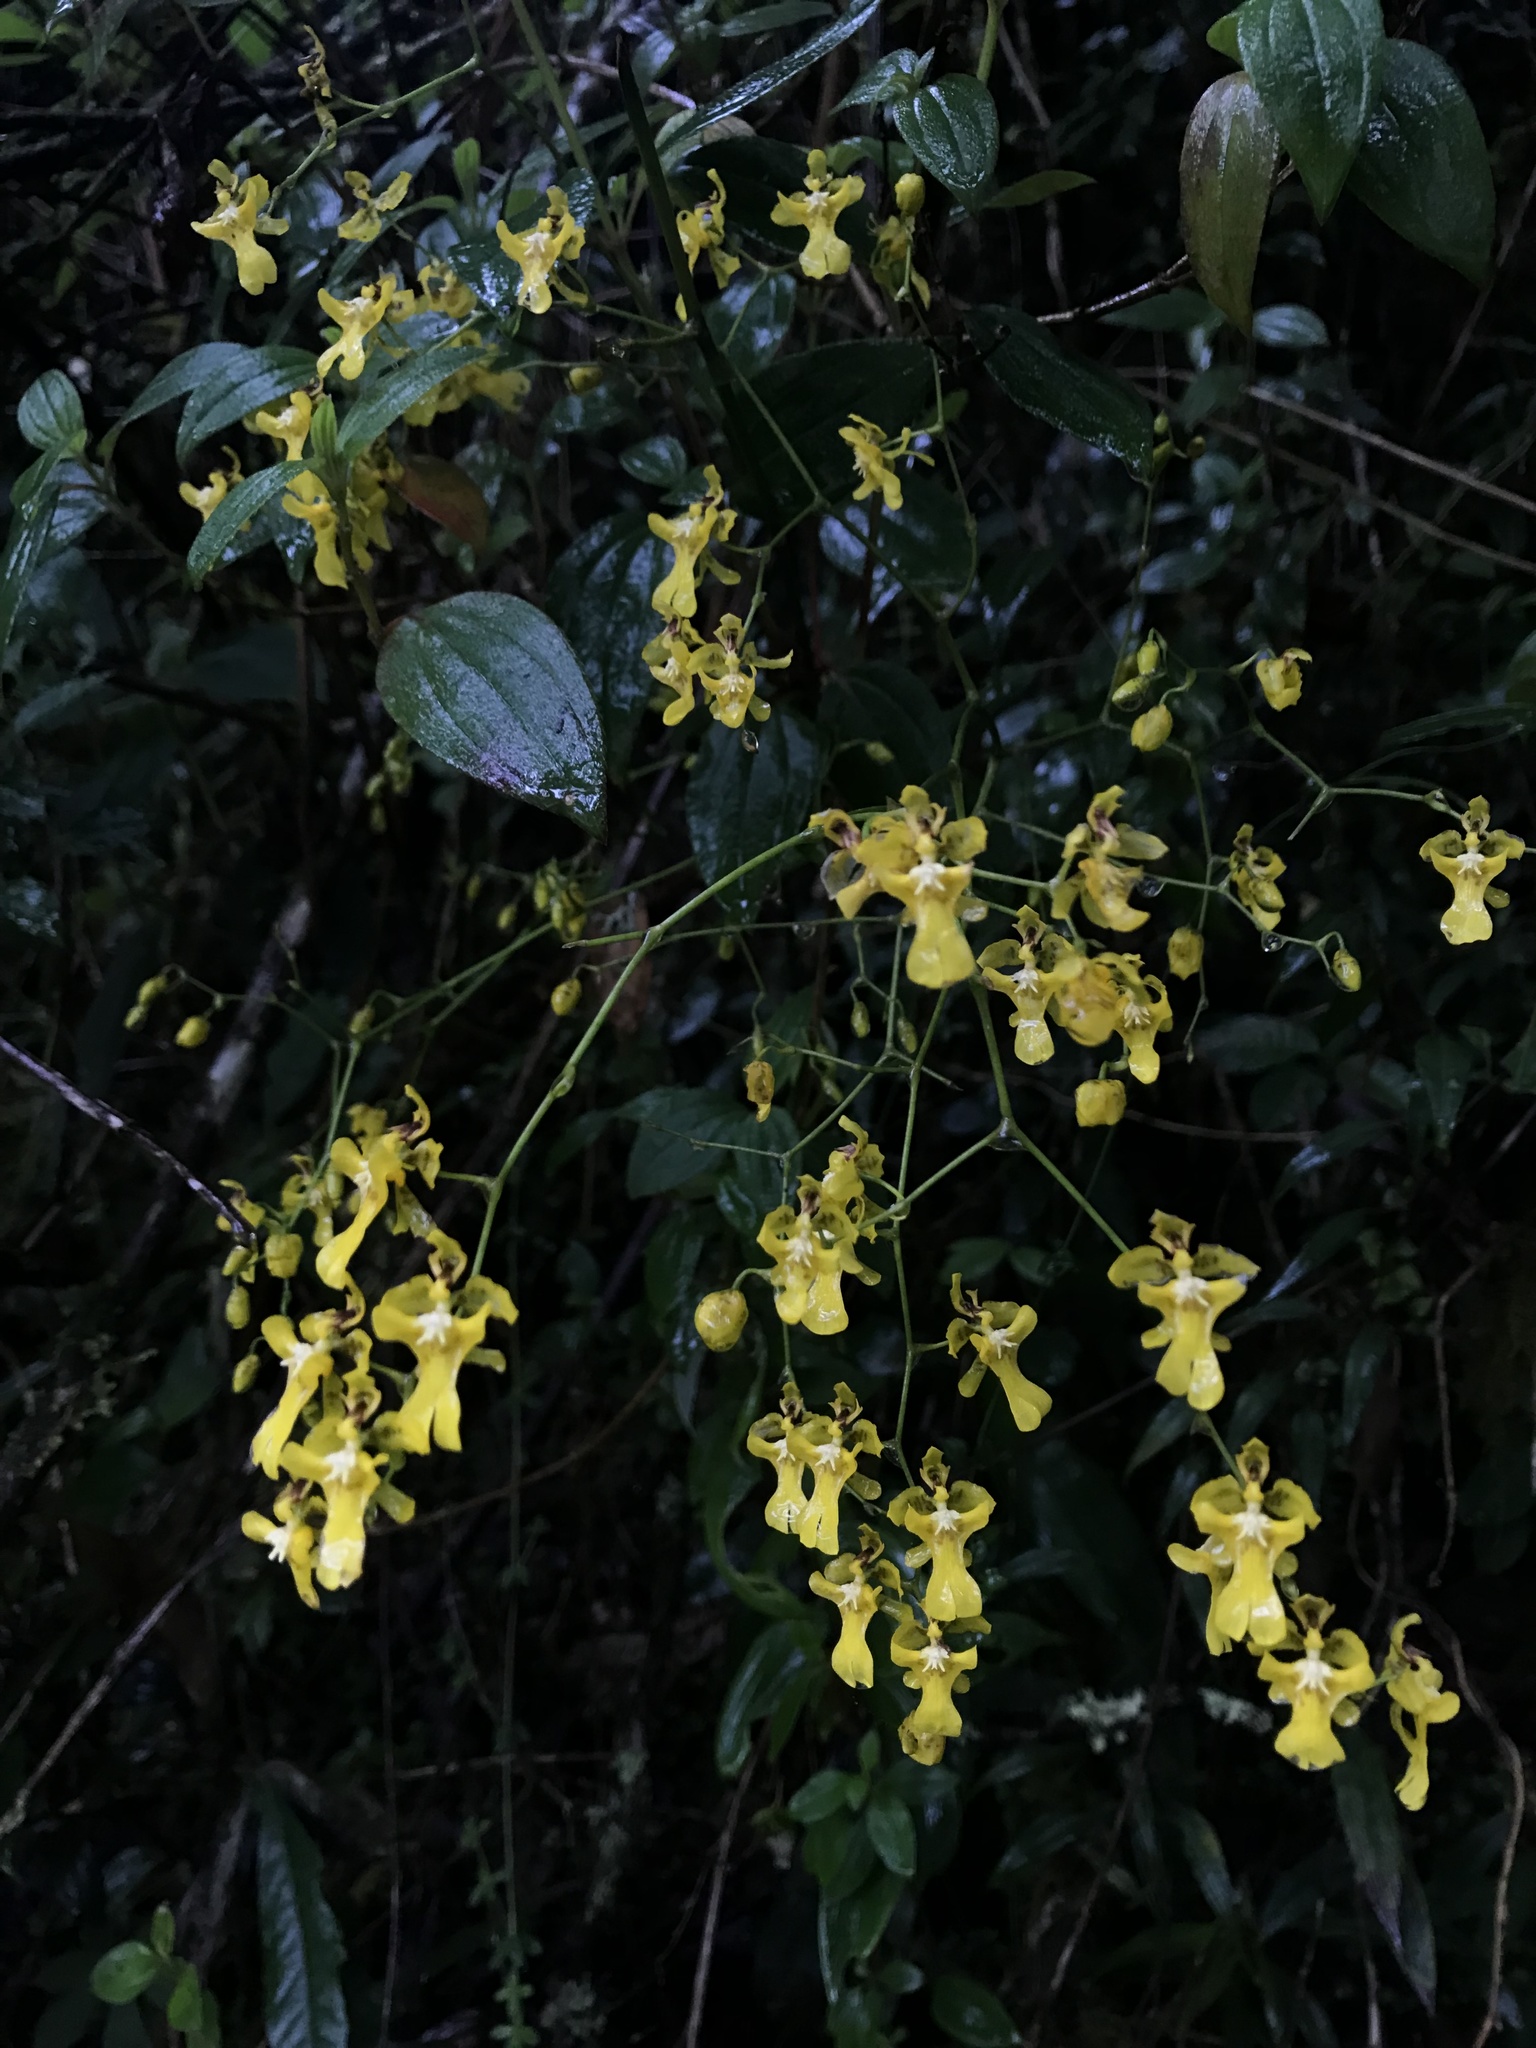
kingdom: Plantae
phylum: Tracheophyta
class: Liliopsida
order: Asparagales
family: Orchidaceae
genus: Oncidium
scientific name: Oncidium ornithorhynchum
